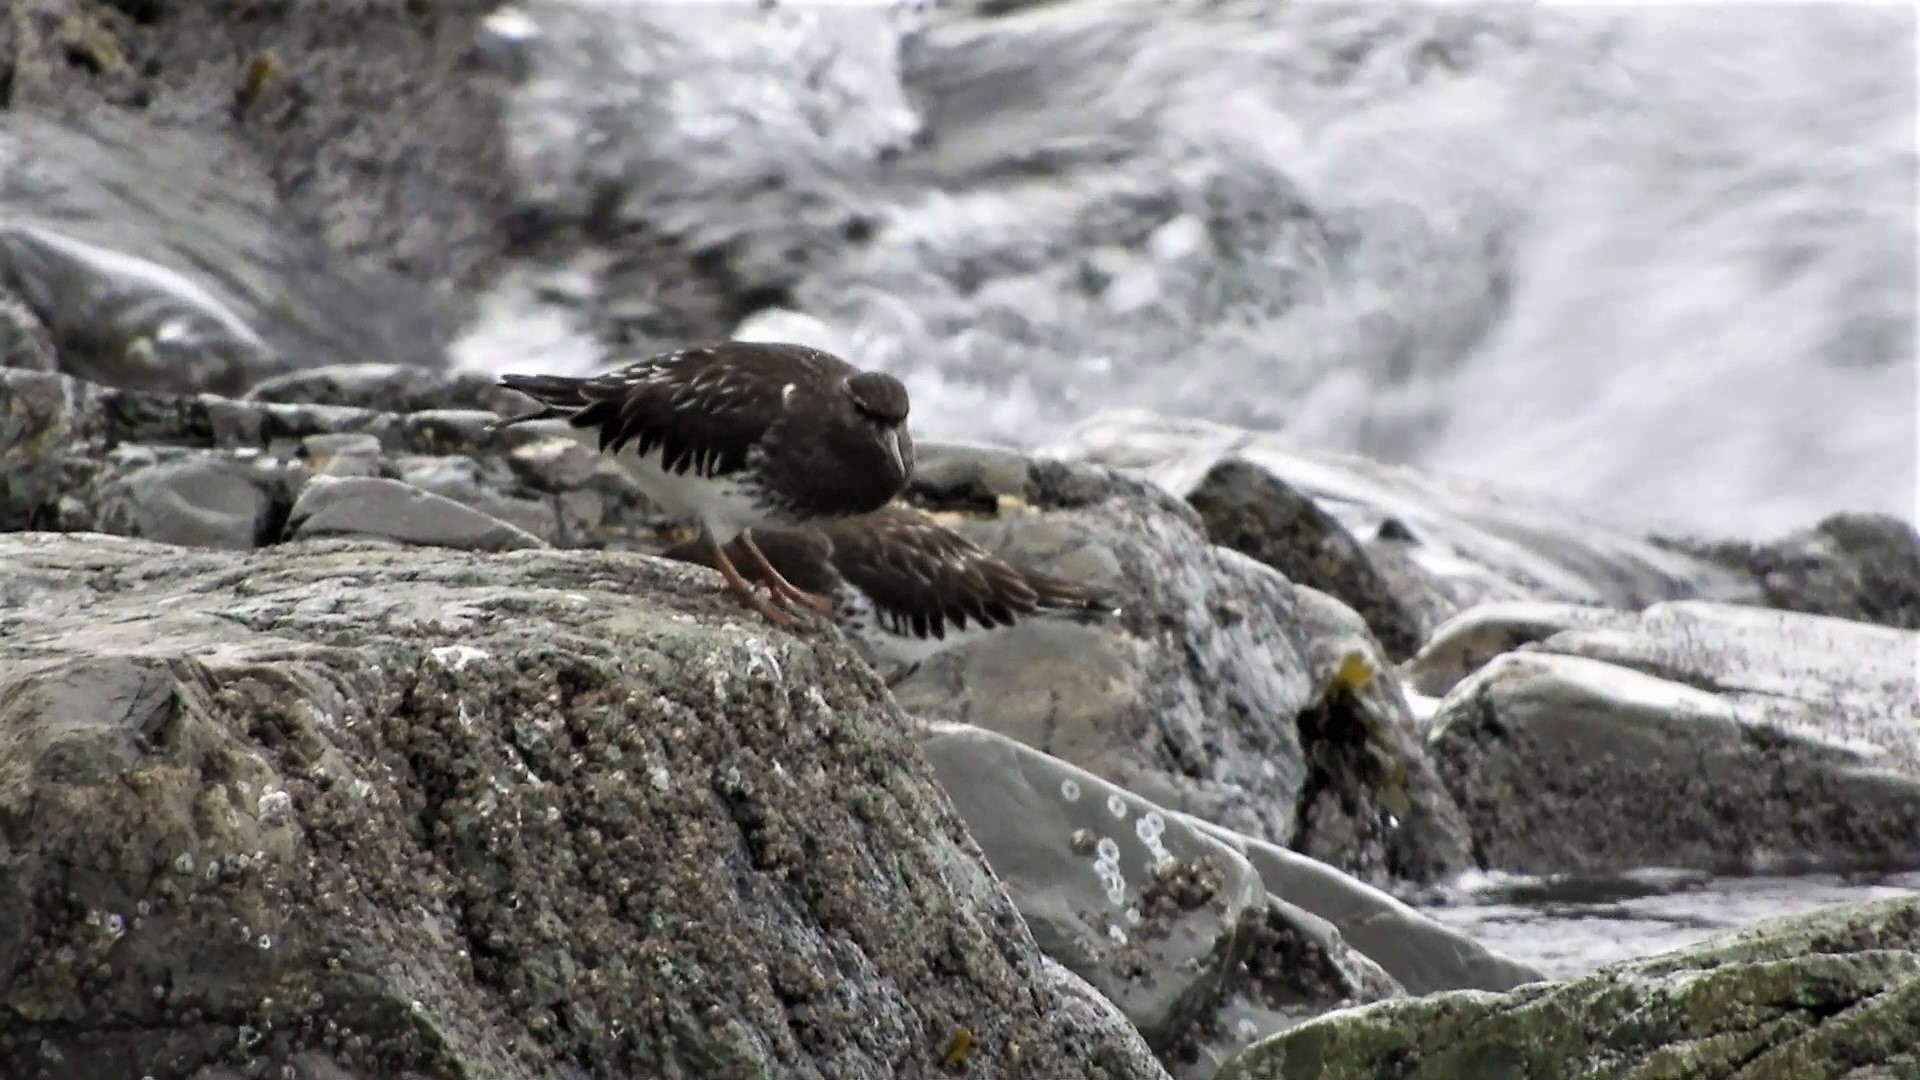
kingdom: Animalia
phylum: Chordata
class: Aves
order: Charadriiformes
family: Scolopacidae
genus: Arenaria
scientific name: Arenaria melanocephala
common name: Black turnstone
